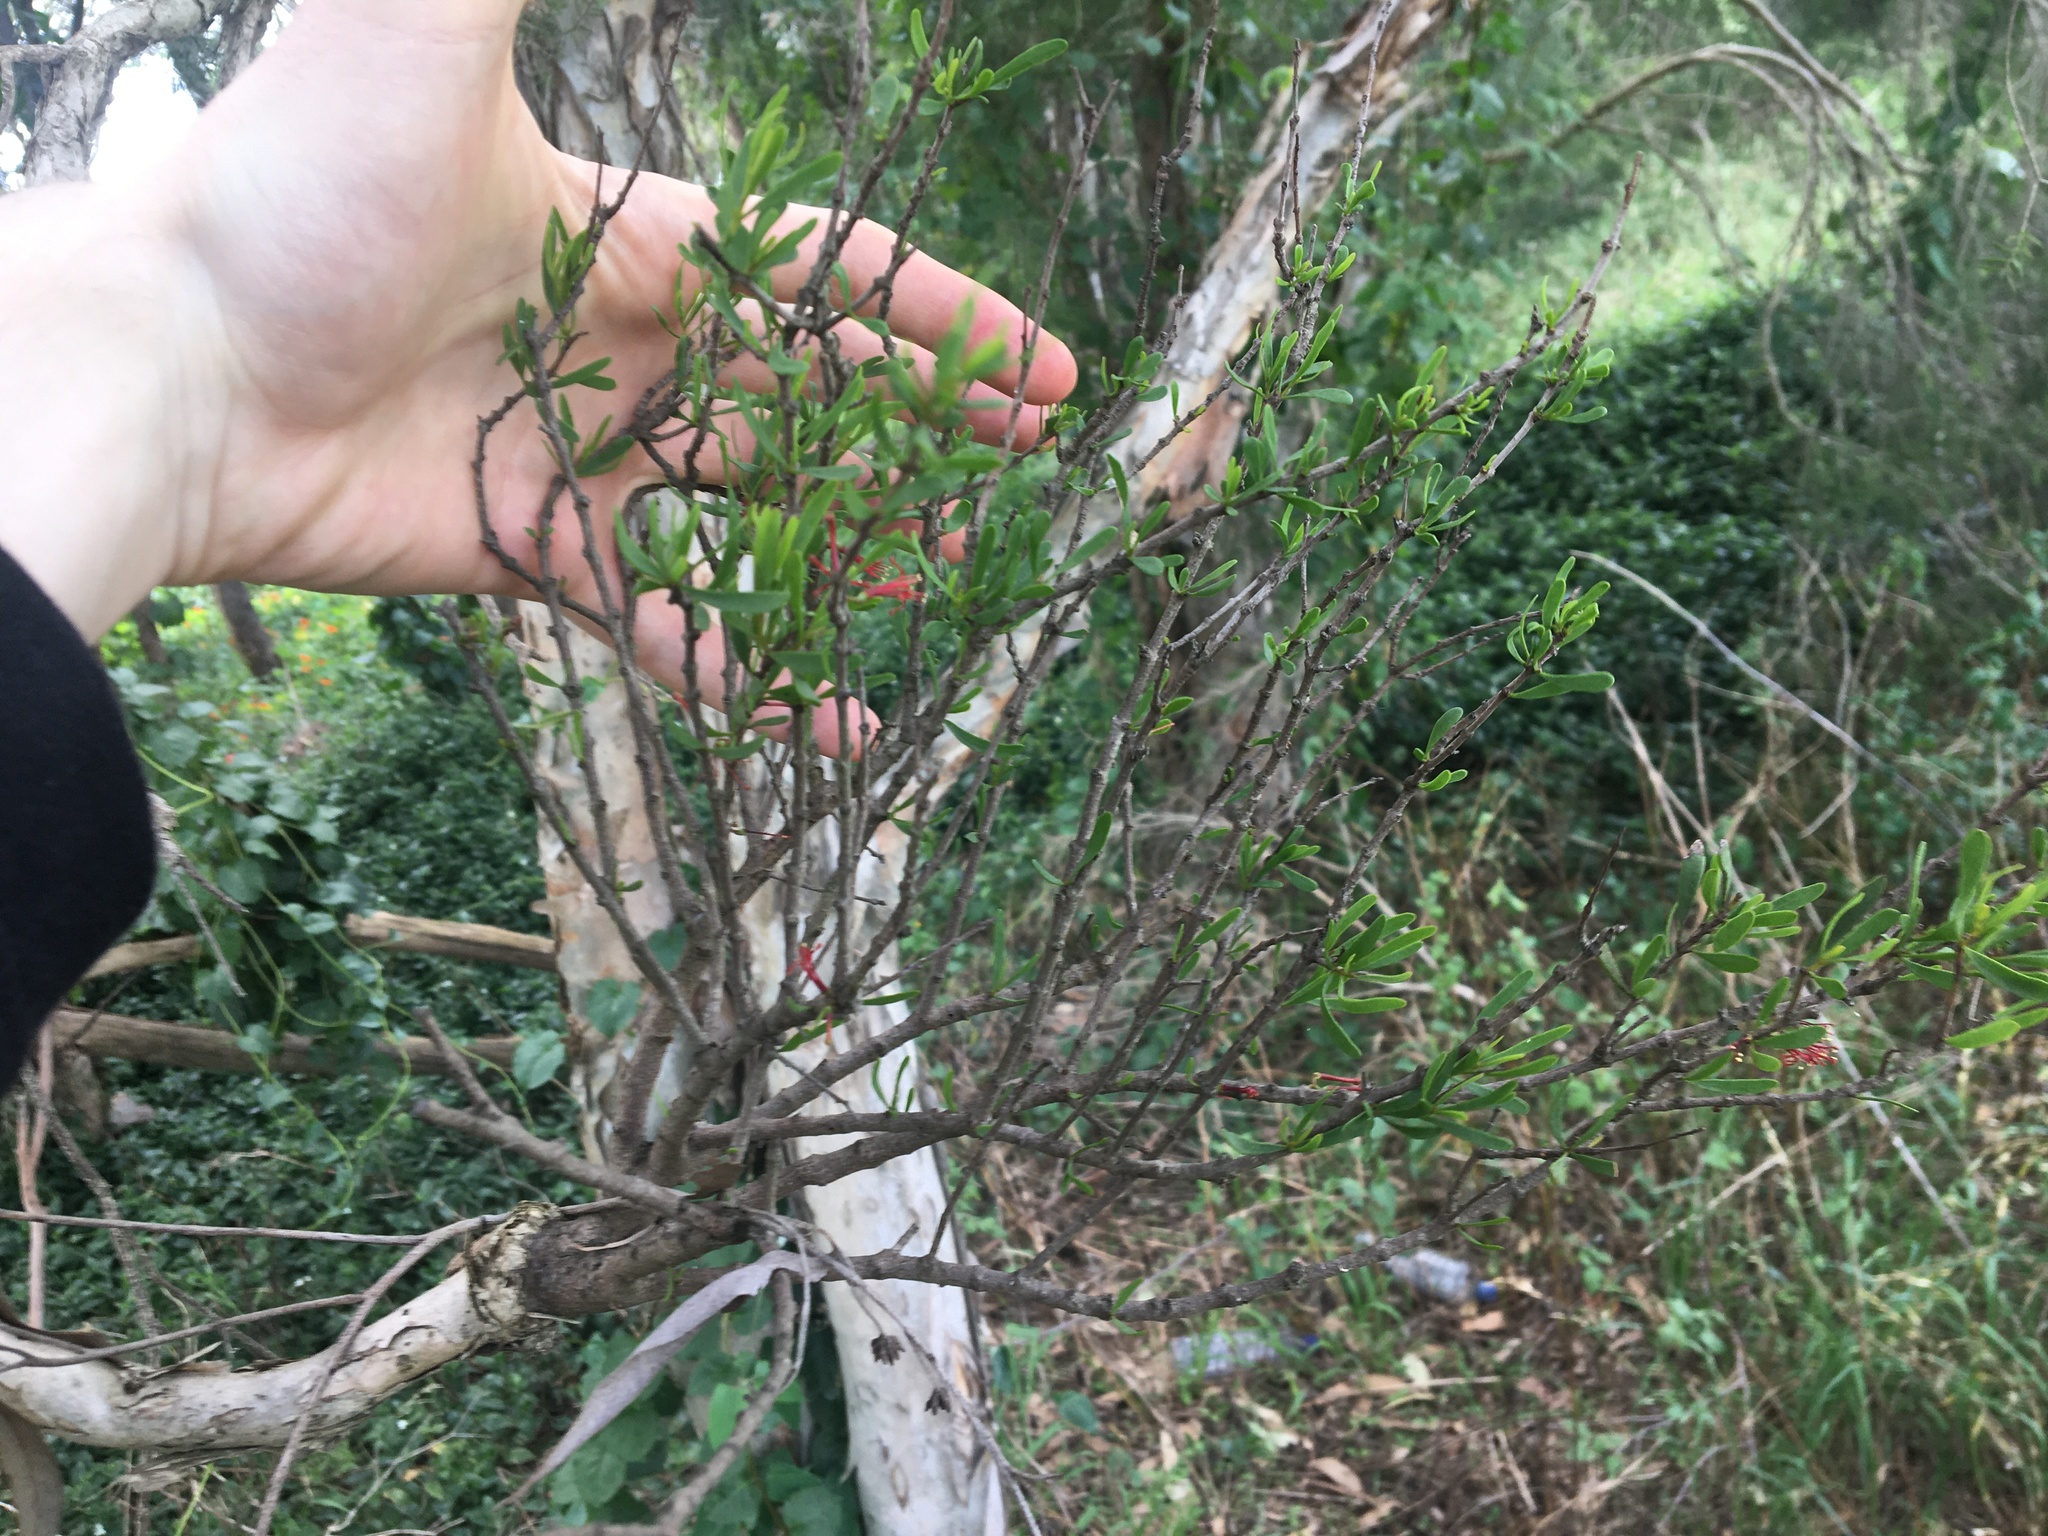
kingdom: Plantae
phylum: Tracheophyta
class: Magnoliopsida
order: Santalales
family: Loranthaceae
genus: Amyema
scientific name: Amyema gaudichaudii
